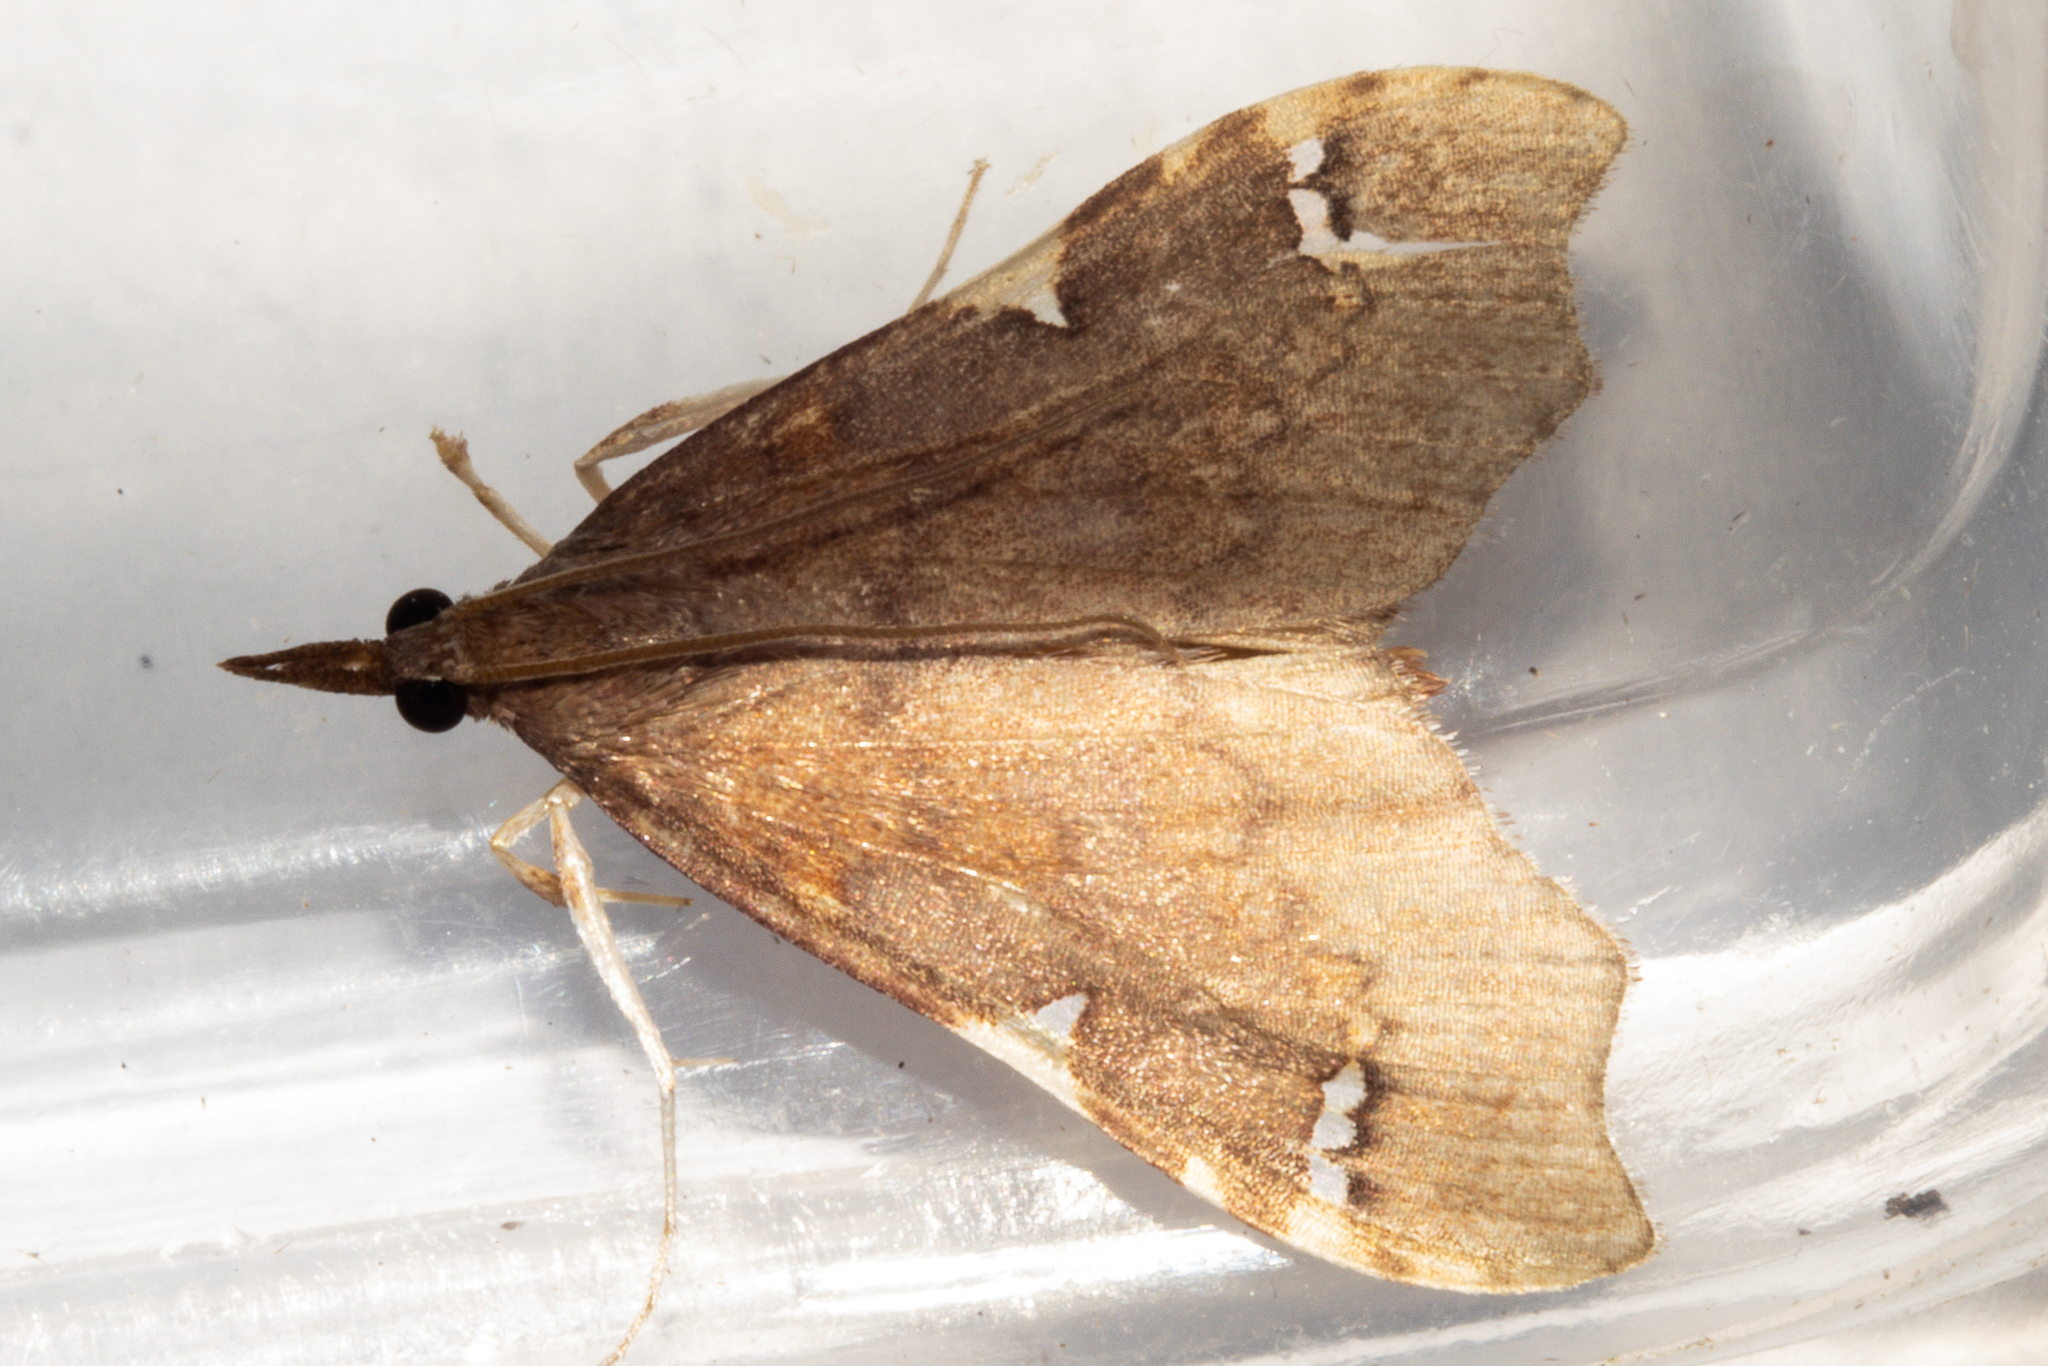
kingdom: Animalia
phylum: Arthropoda
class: Insecta
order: Lepidoptera
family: Crambidae
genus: Deana
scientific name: Deana hybreasalis
